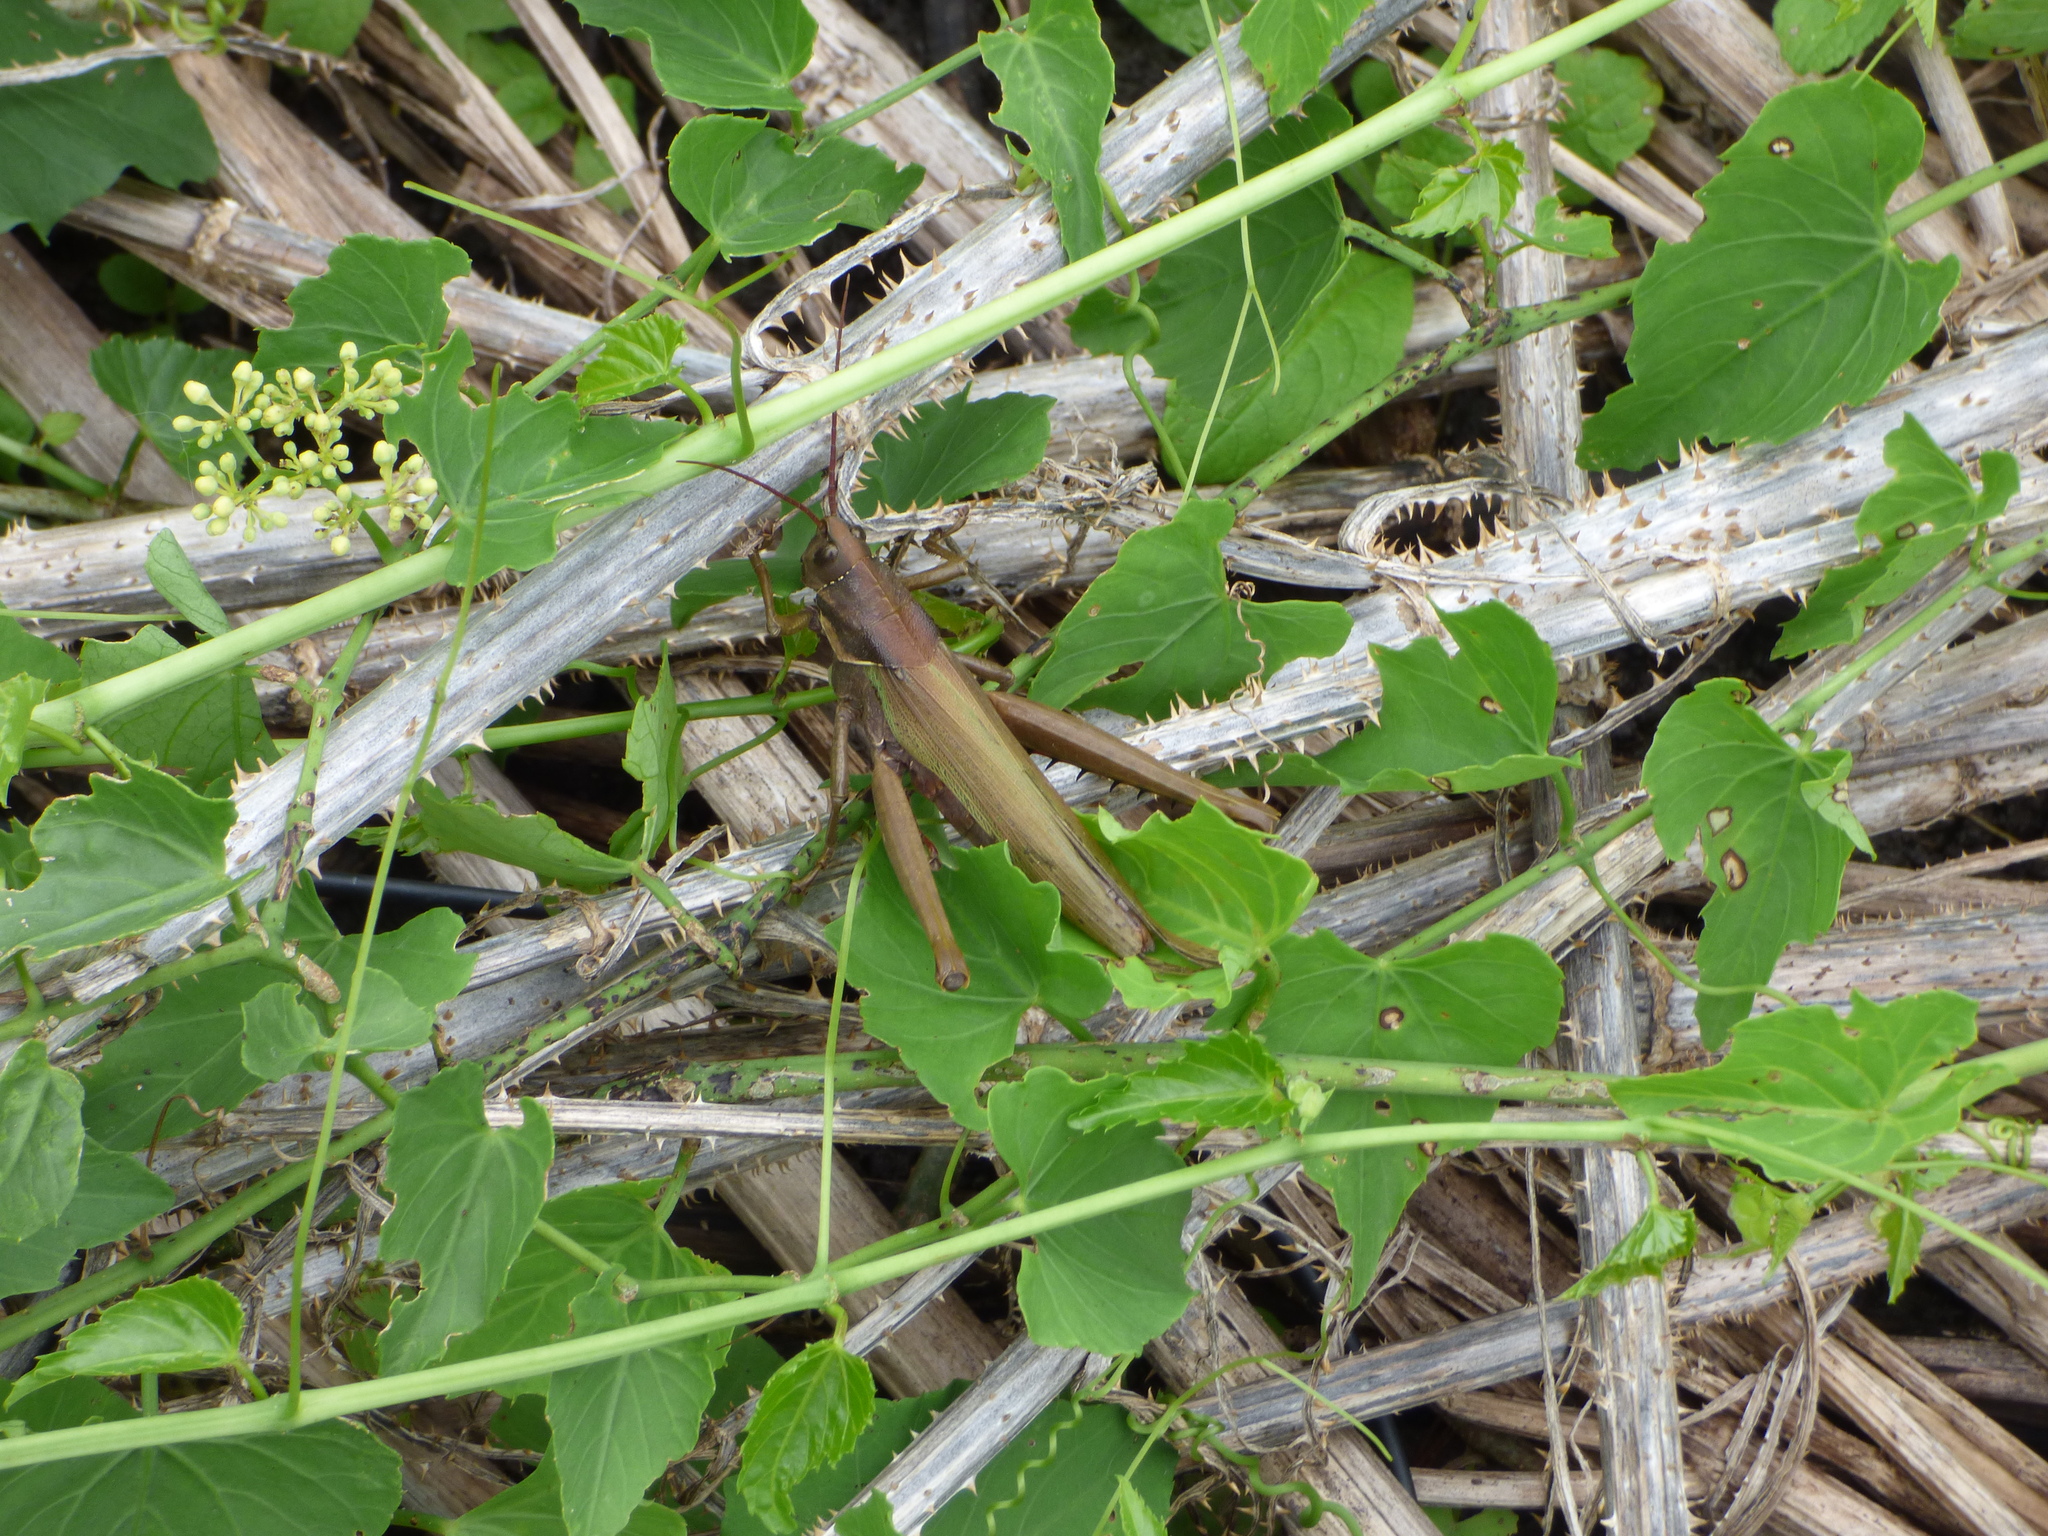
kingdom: Animalia
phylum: Arthropoda
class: Insecta
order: Orthoptera
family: Romaleidae
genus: Coryacris
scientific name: Coryacris angustipennis
